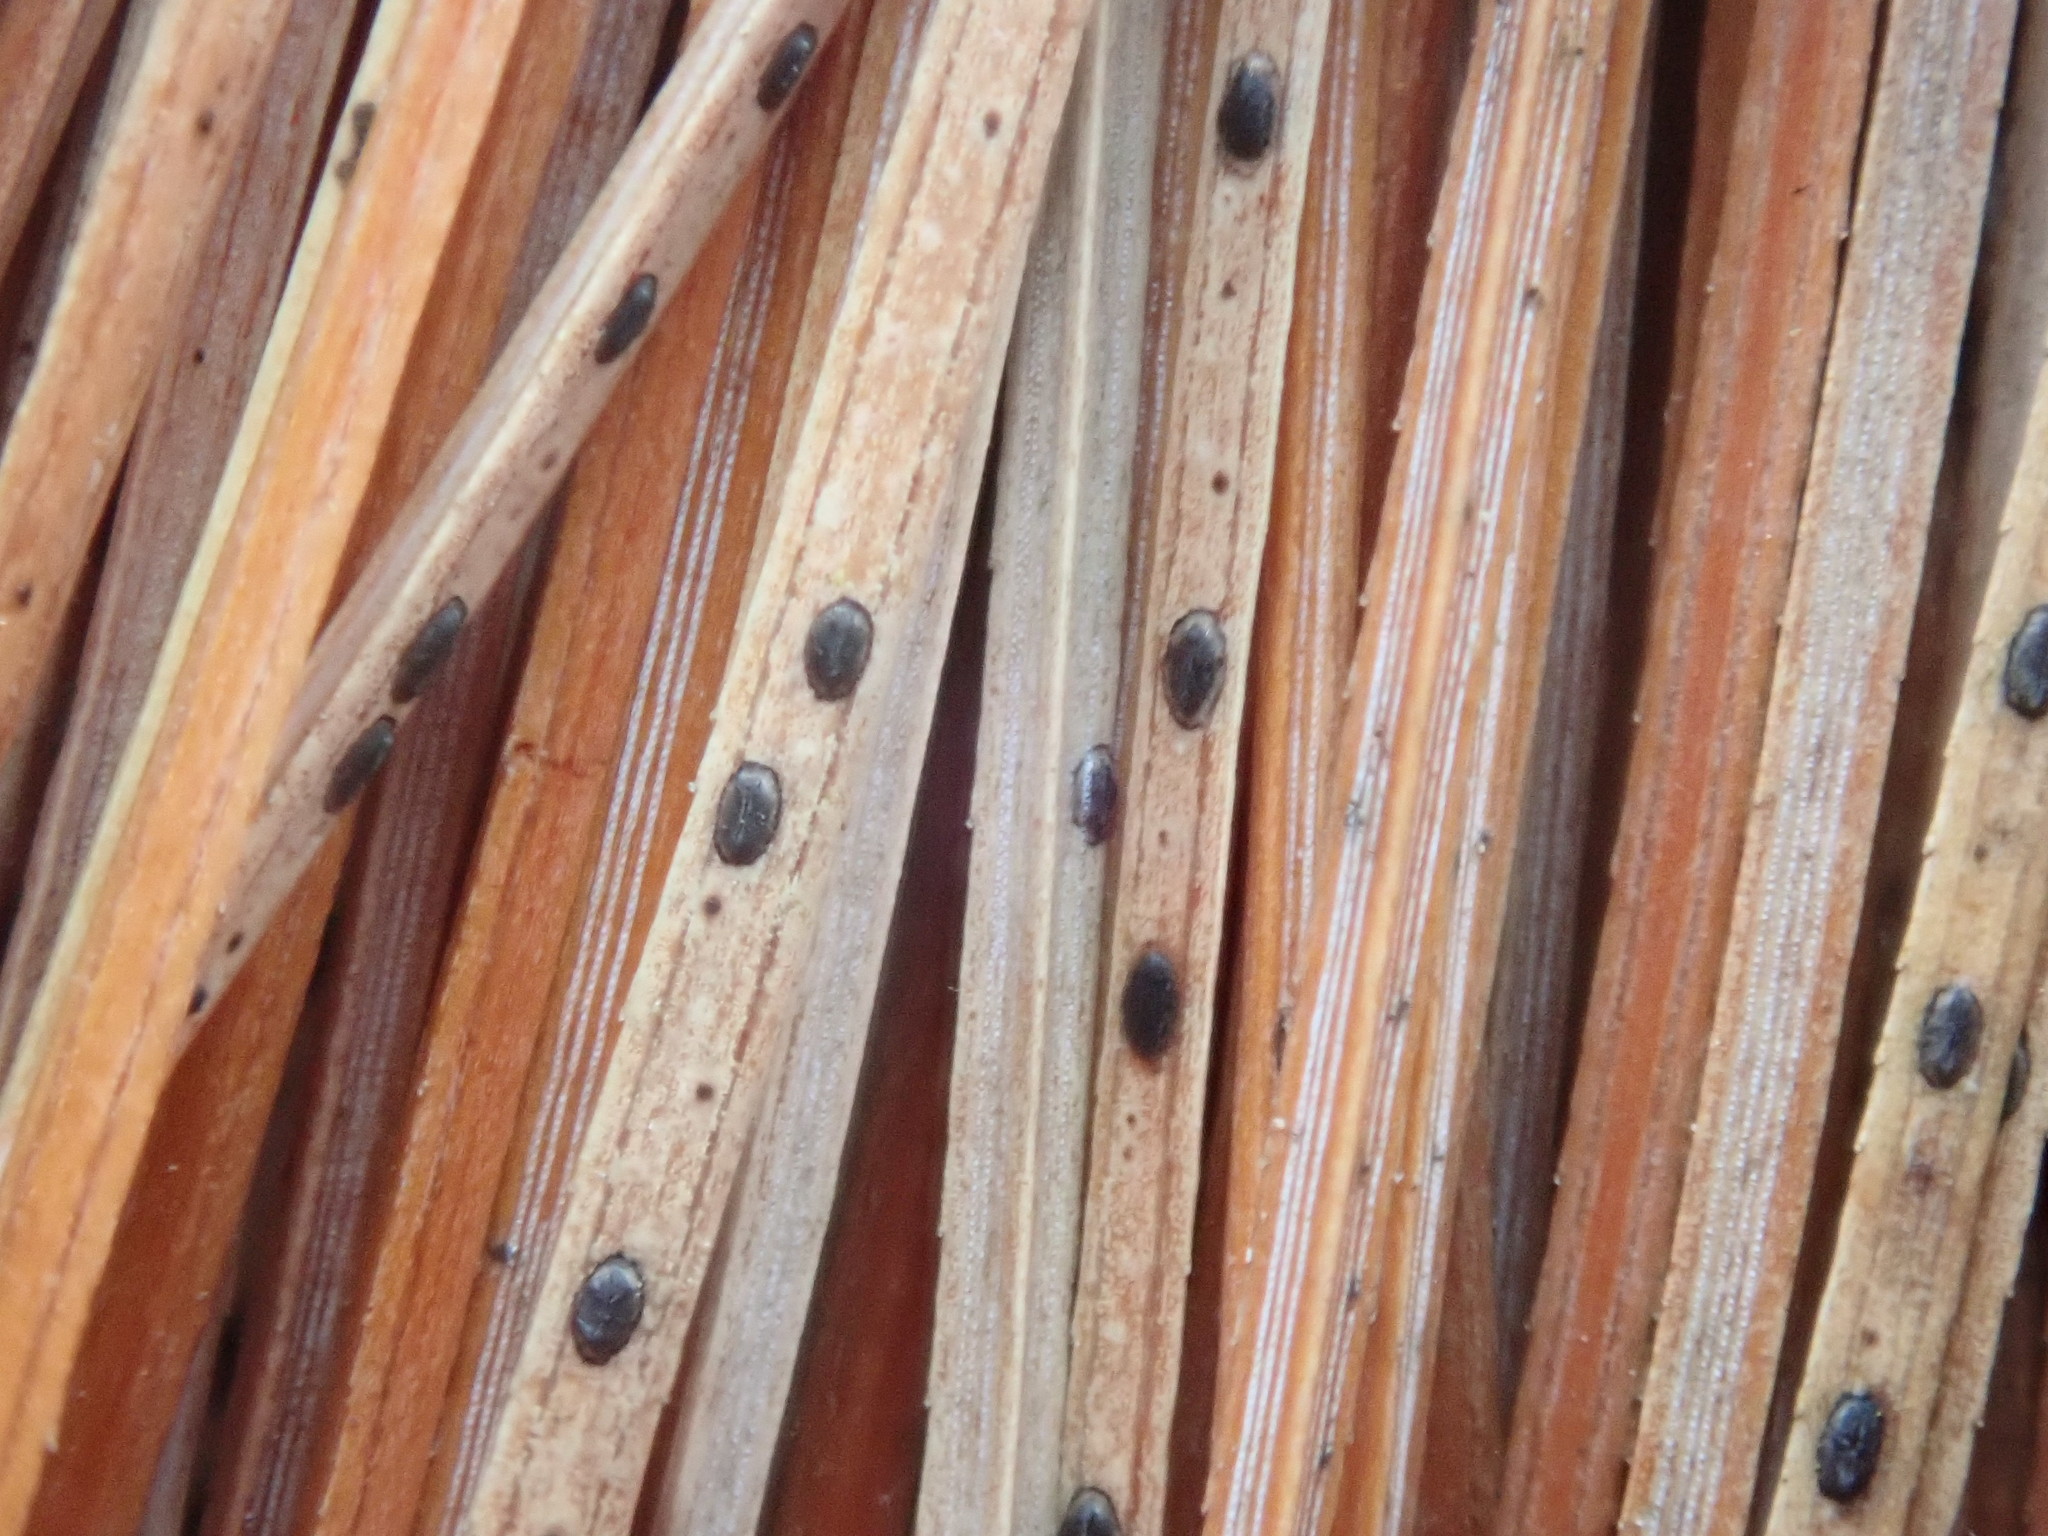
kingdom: Fungi
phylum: Ascomycota
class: Leotiomycetes
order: Rhytismatales
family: Rhytismataceae
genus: Lophodermium
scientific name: Lophodermium pinastri
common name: Pine needle split
